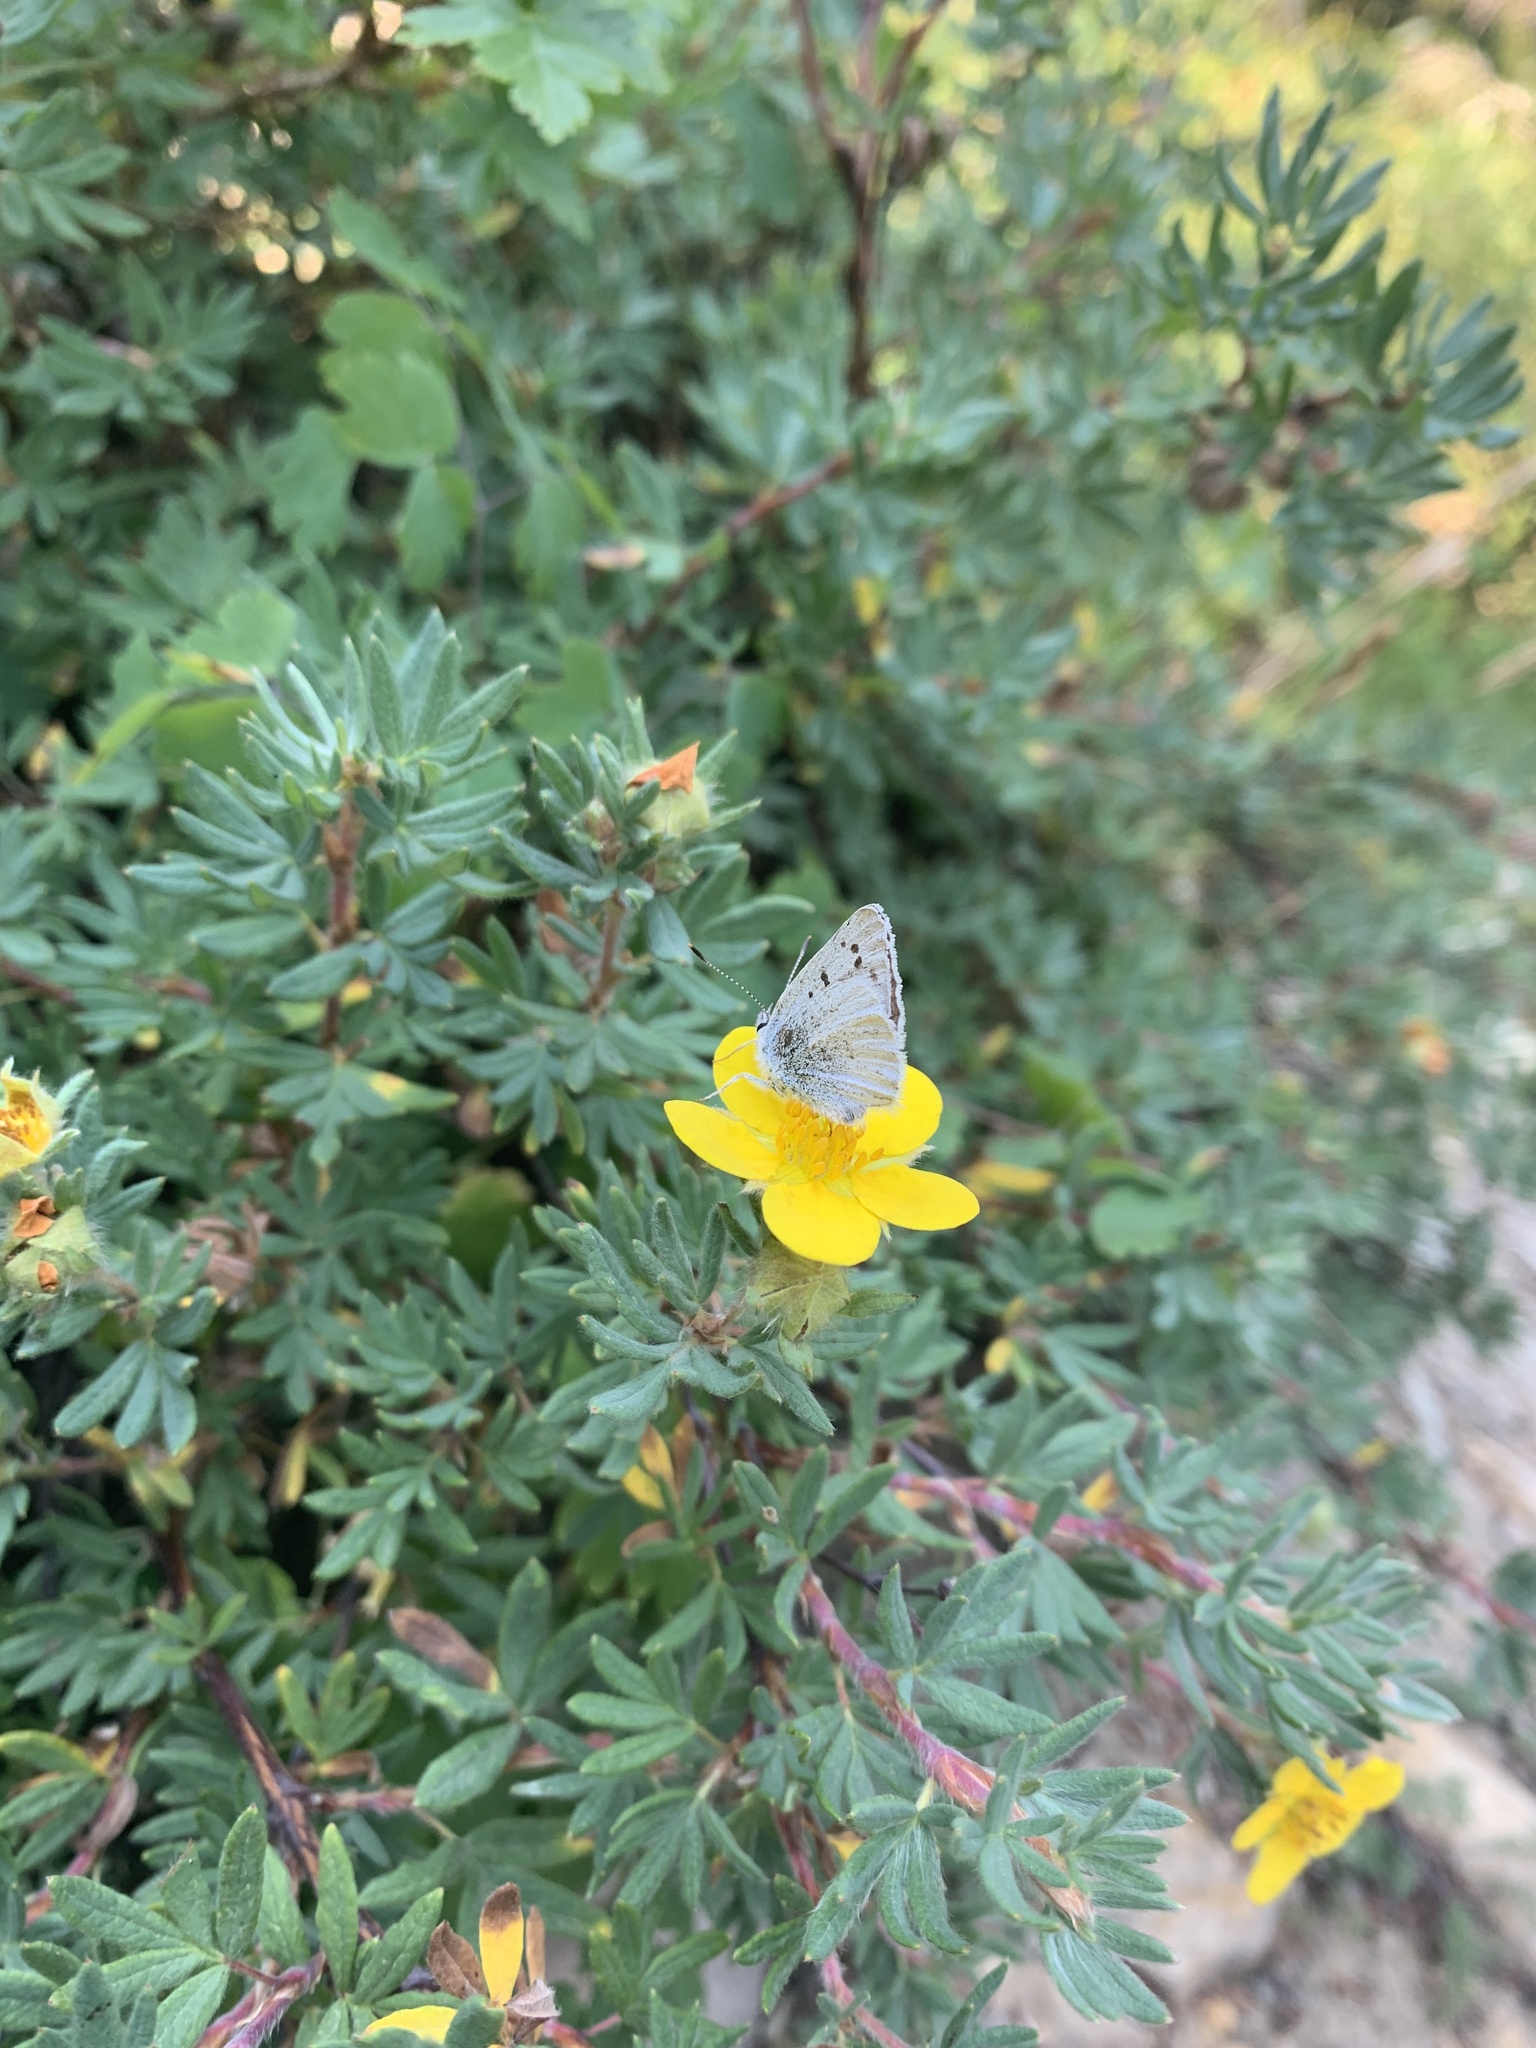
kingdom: Animalia
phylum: Arthropoda
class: Insecta
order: Lepidoptera
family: Lycaenidae
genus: Tharsalea
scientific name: Tharsalea heteronea
